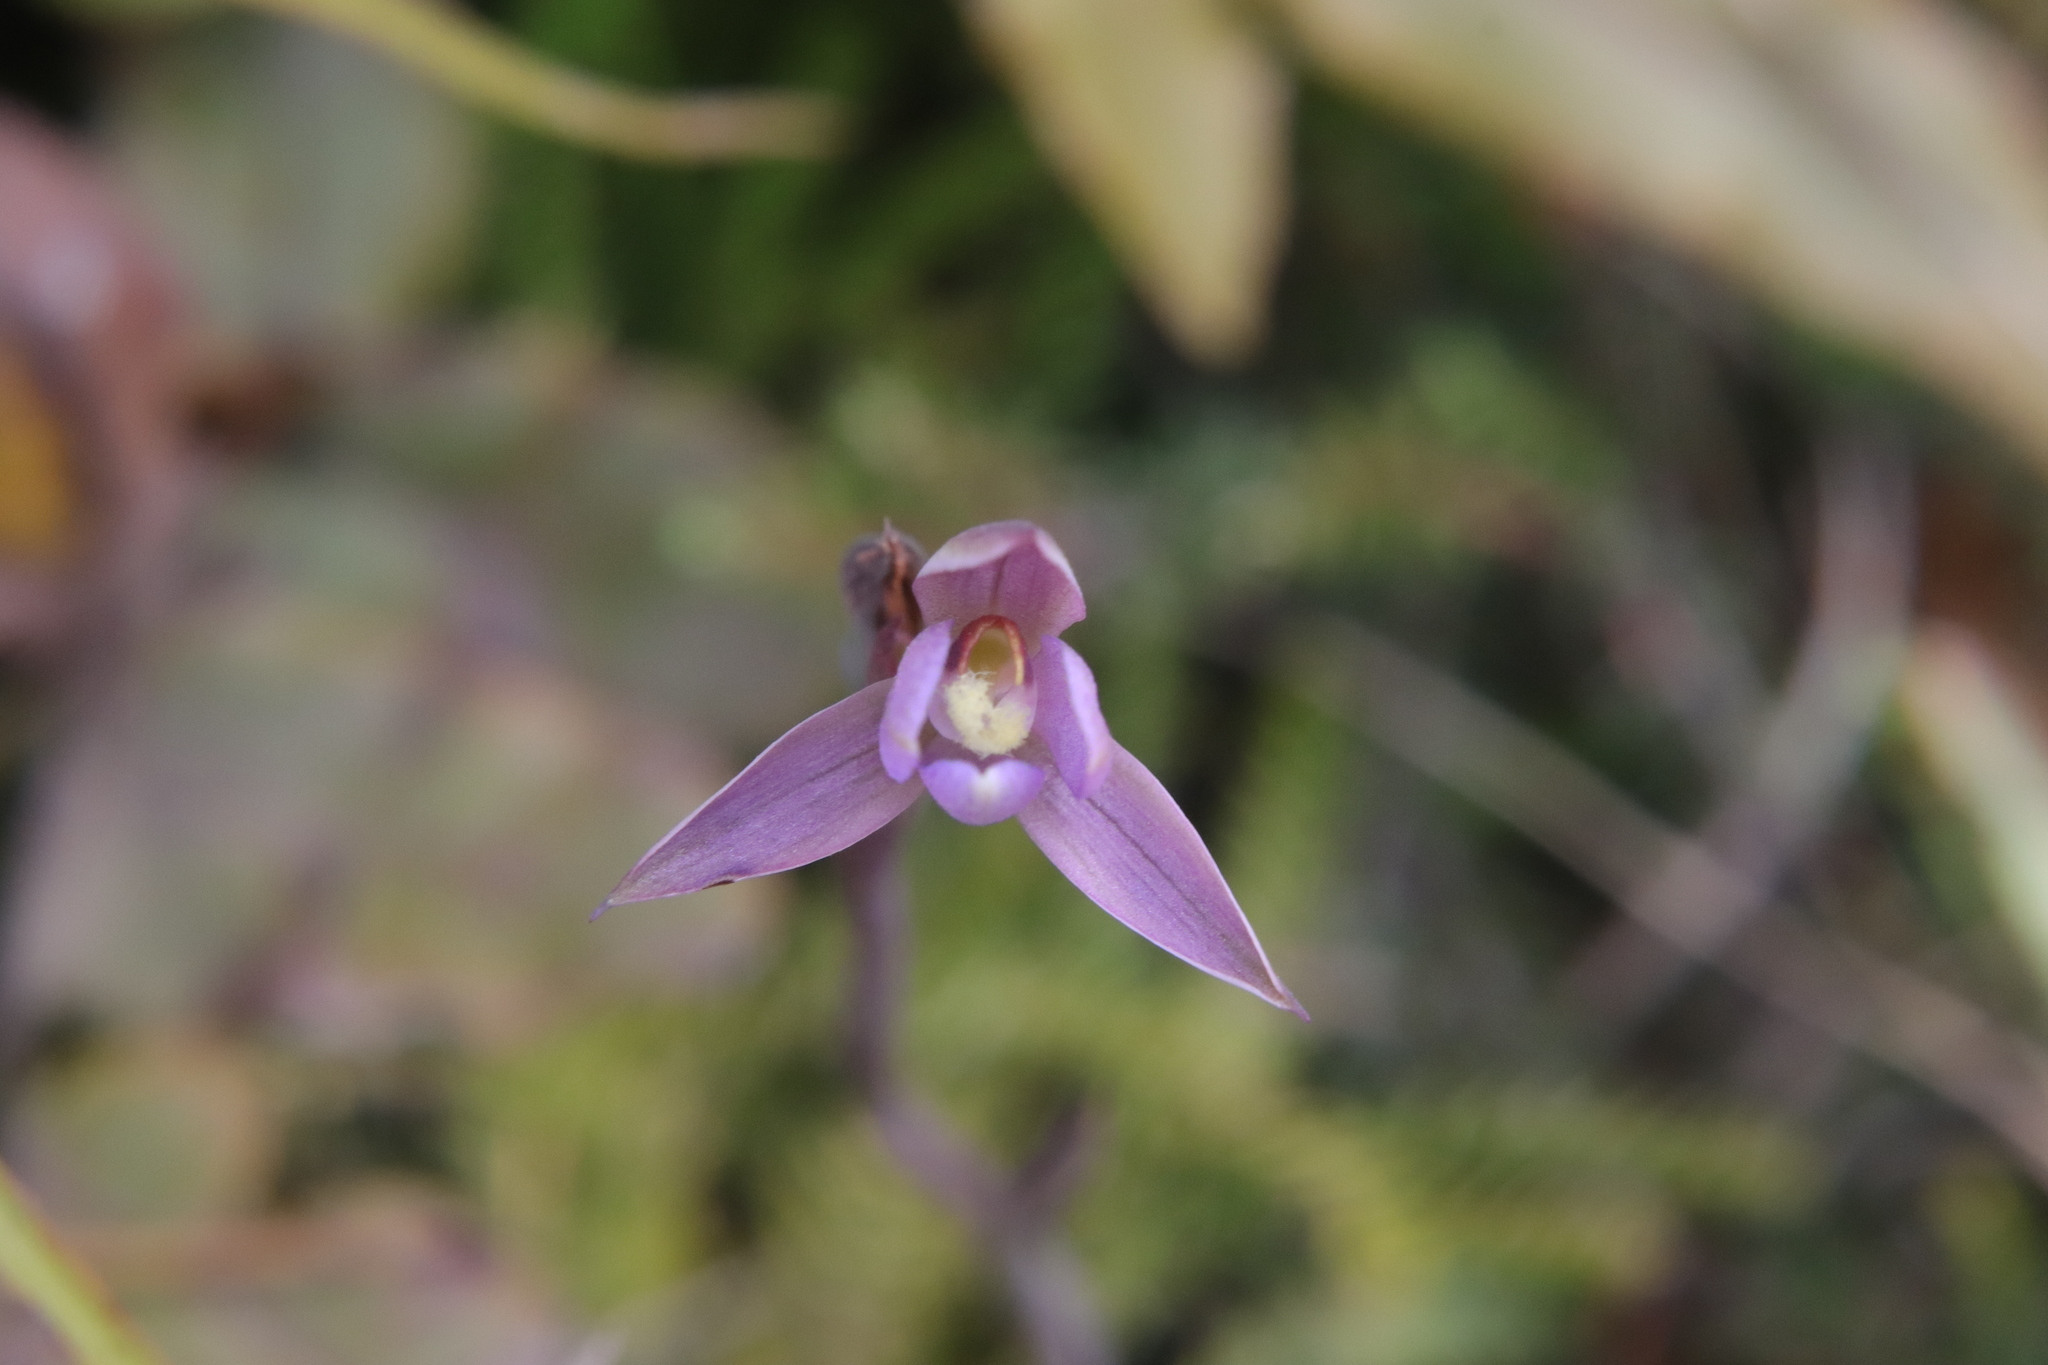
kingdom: Plantae
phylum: Tracheophyta
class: Liliopsida
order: Asparagales
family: Orchidaceae
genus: Thelymitra
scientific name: Thelymitra hatchii
